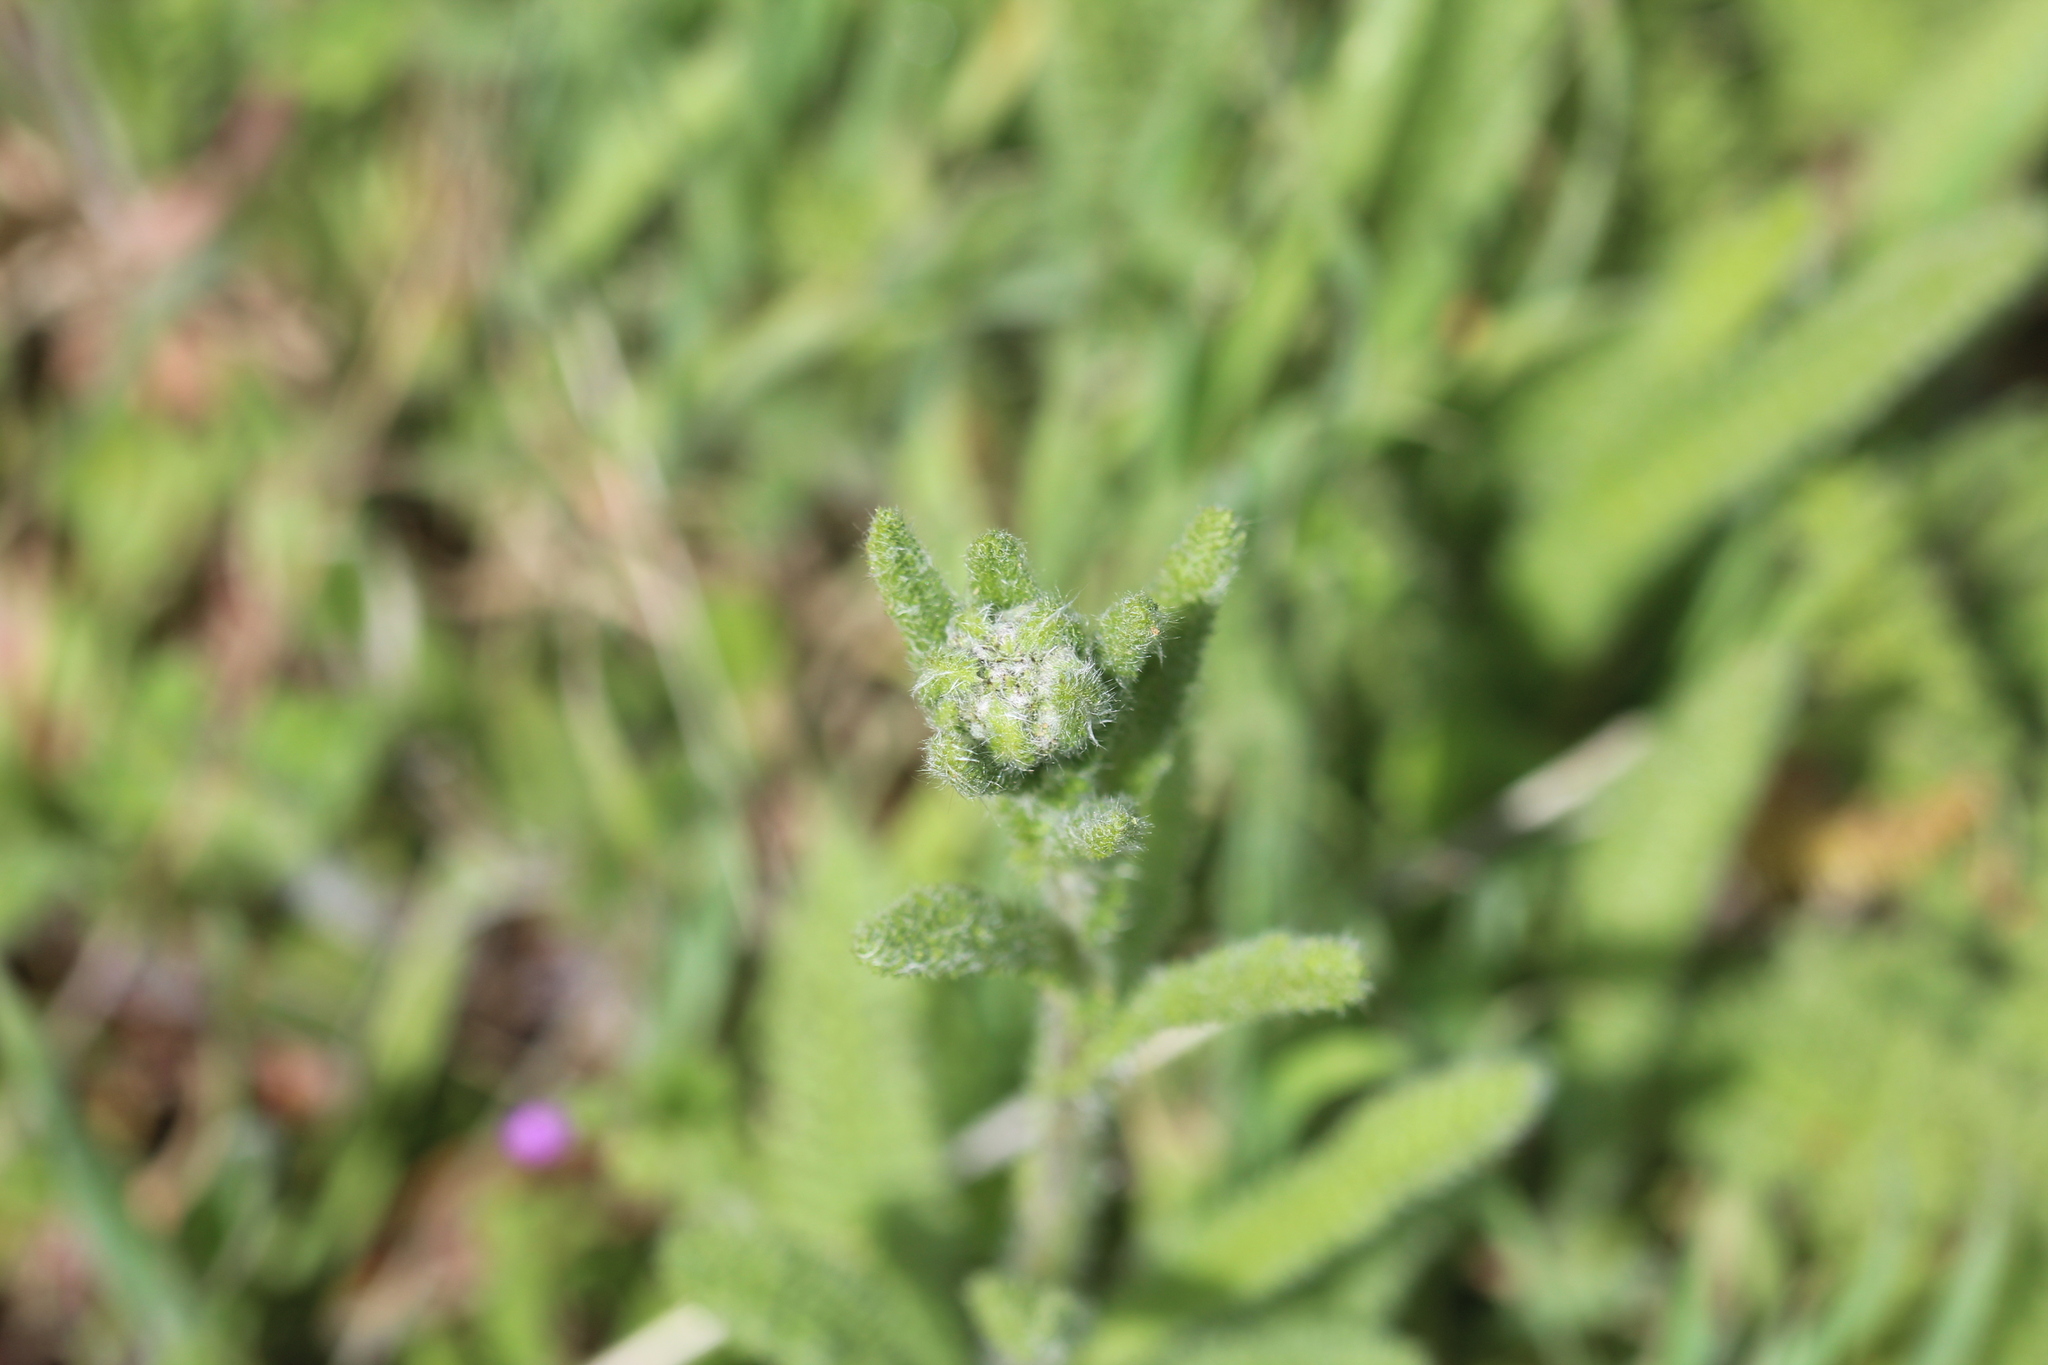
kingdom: Plantae
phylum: Tracheophyta
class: Magnoliopsida
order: Asterales
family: Asteraceae
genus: Achillea
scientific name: Achillea millefolium
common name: Yarrow
